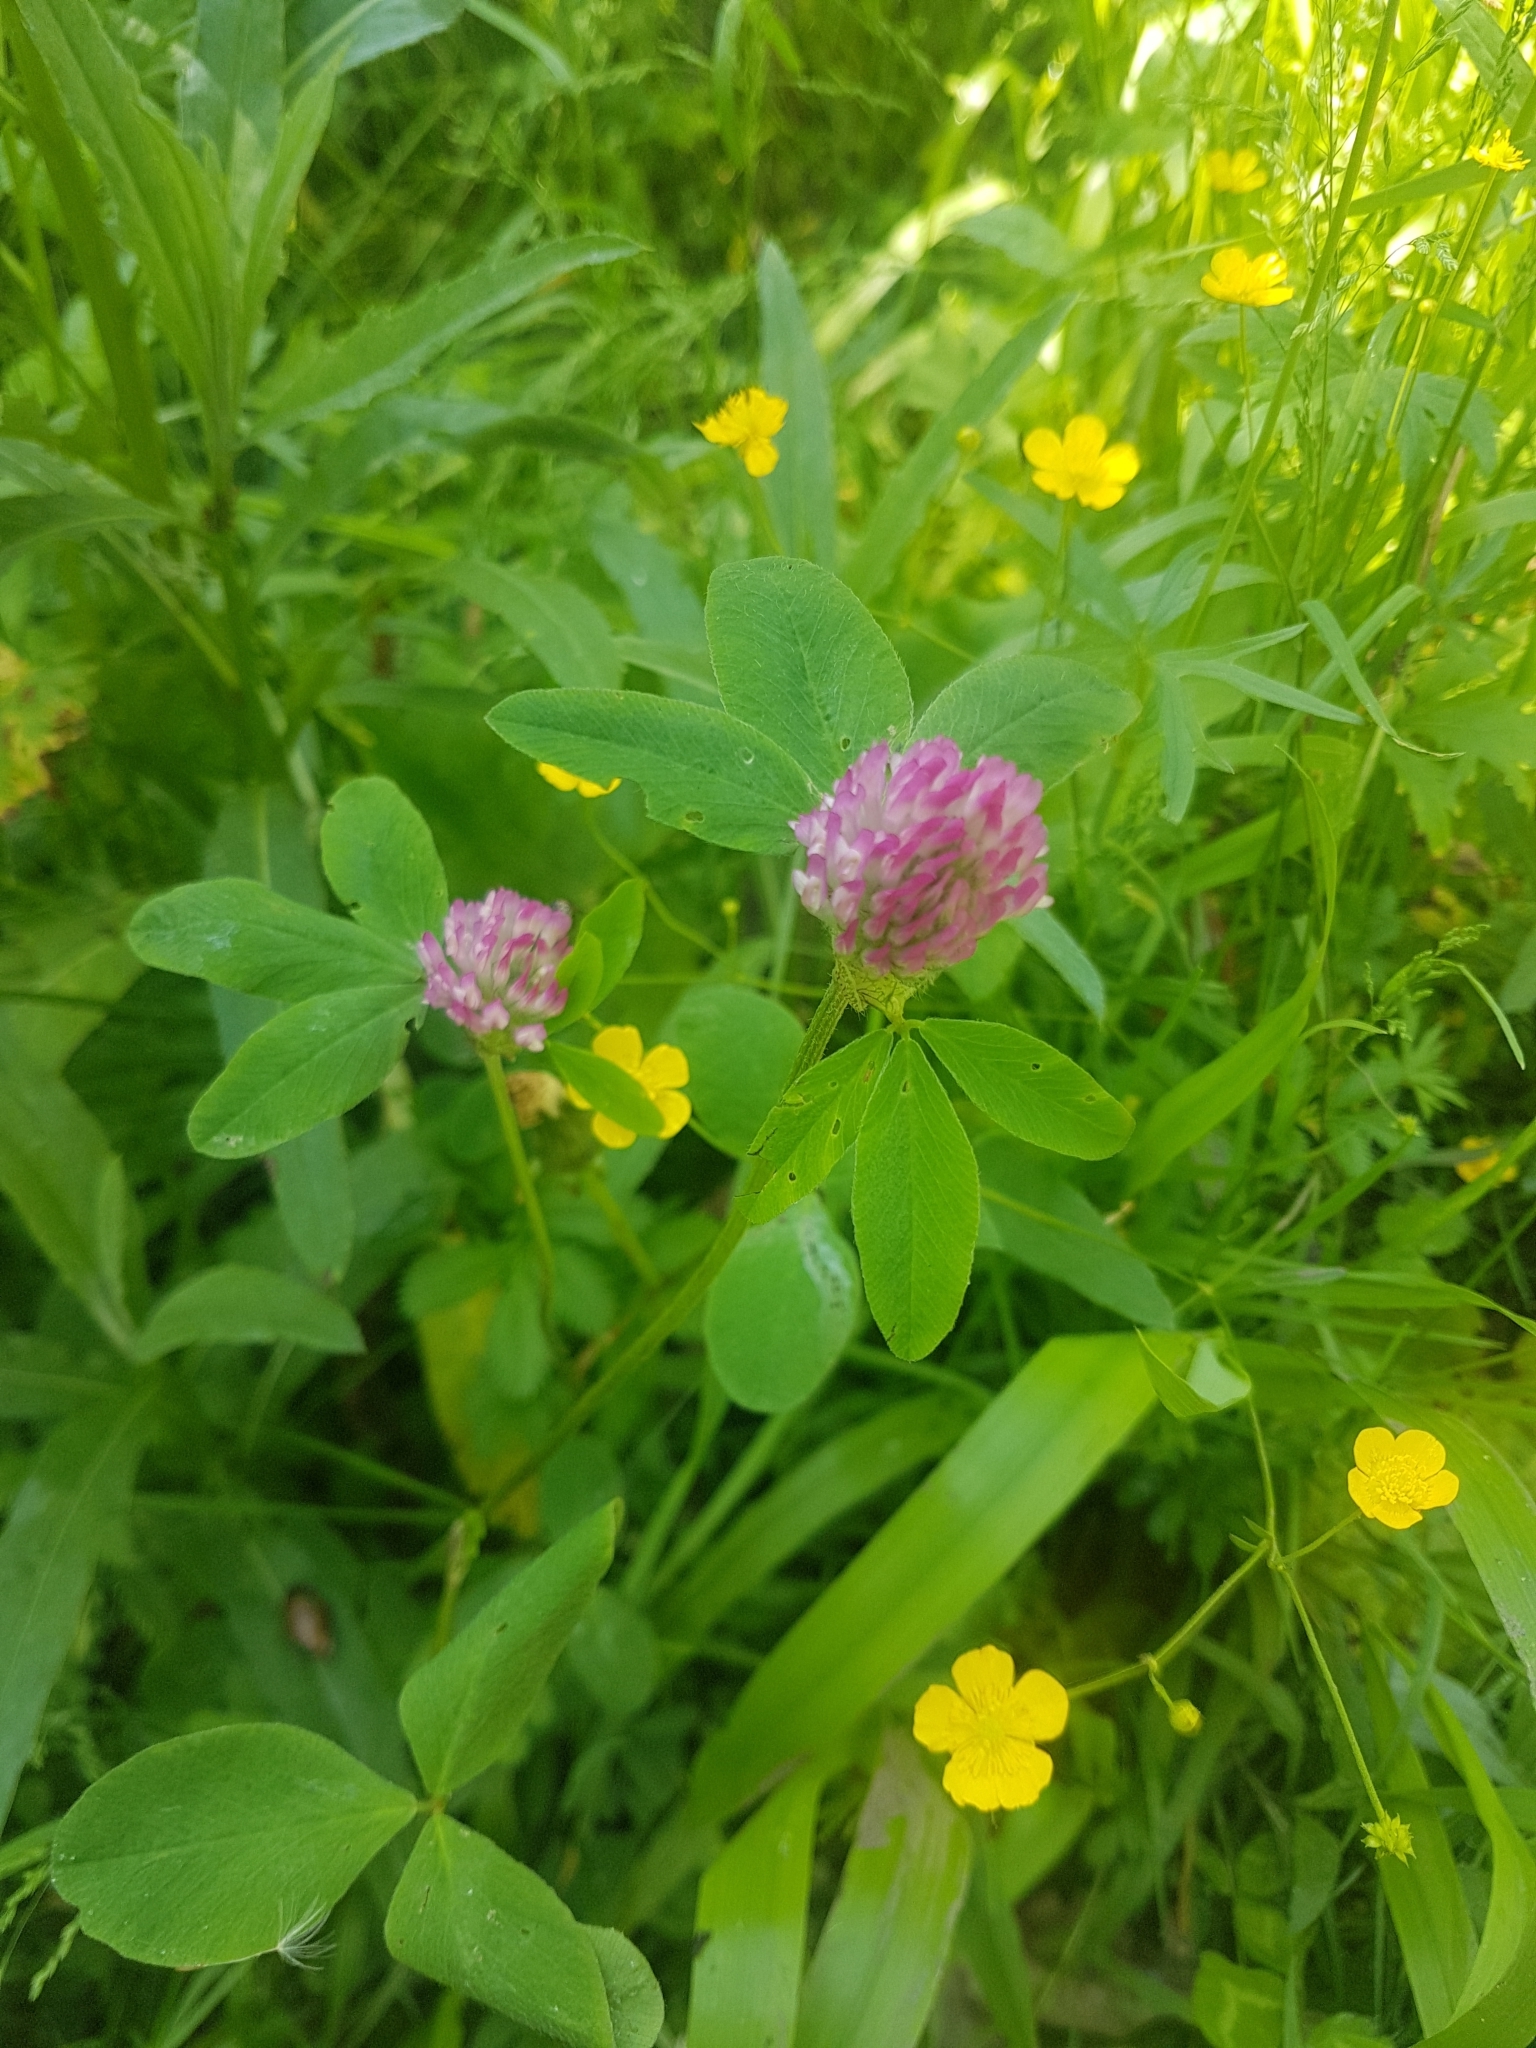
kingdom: Plantae
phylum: Tracheophyta
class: Magnoliopsida
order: Fabales
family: Fabaceae
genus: Trifolium
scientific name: Trifolium pratense
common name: Red clover
